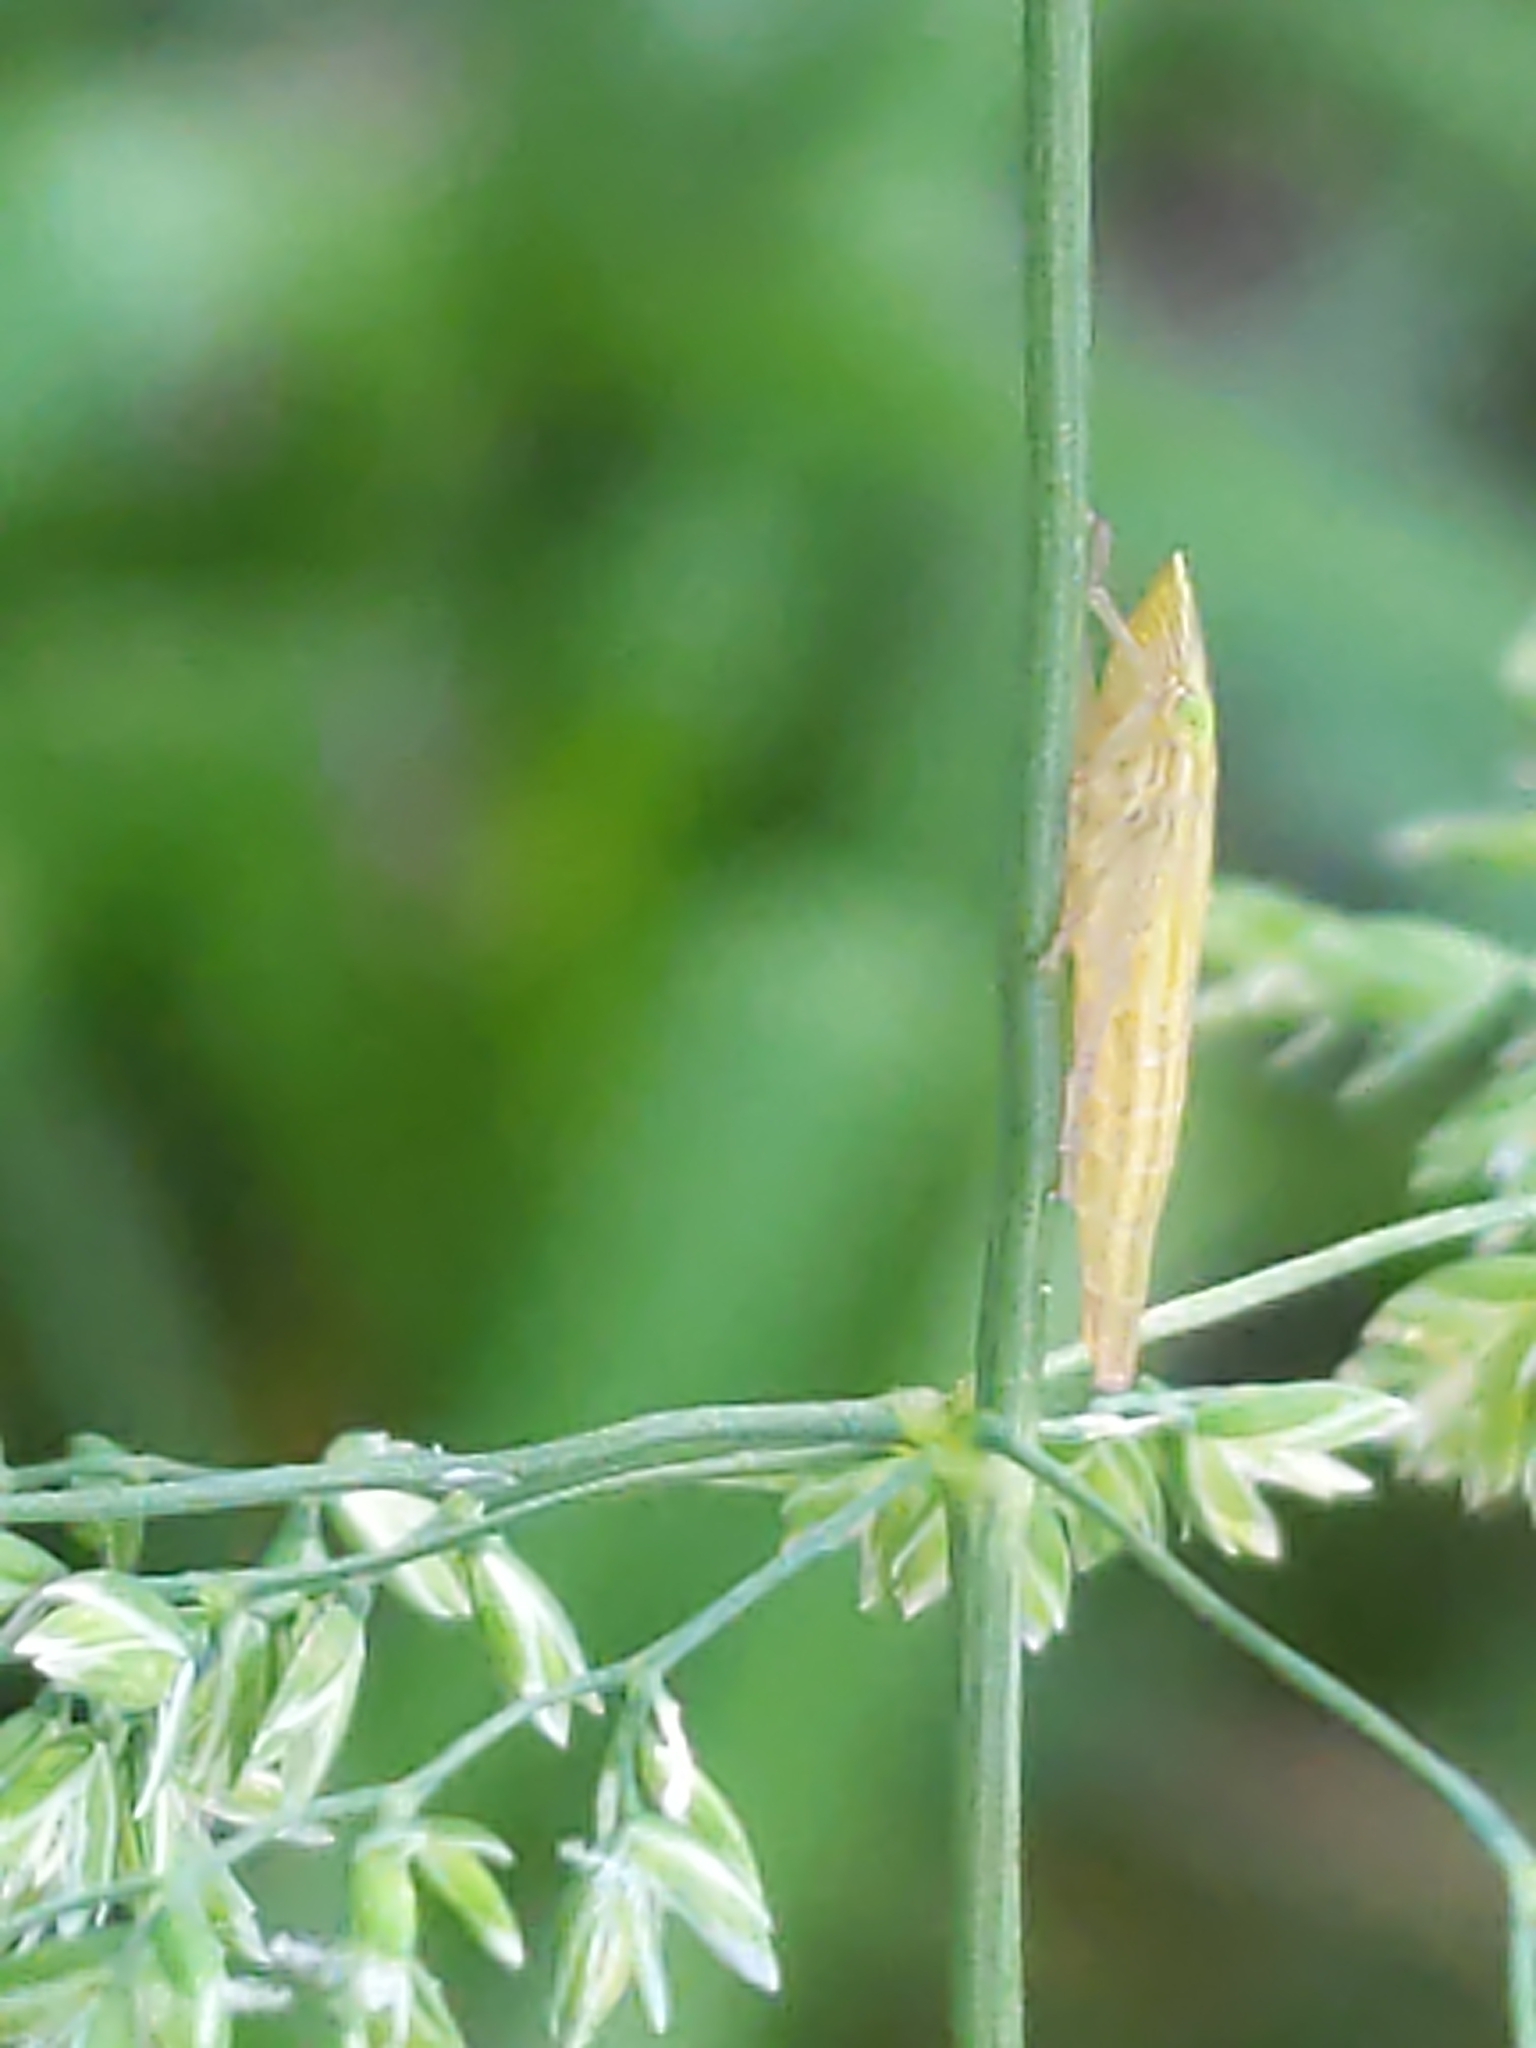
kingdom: Animalia
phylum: Arthropoda
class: Insecta
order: Hemiptera
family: Cicadellidae
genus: Draeculacephala
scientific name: Draeculacephala
